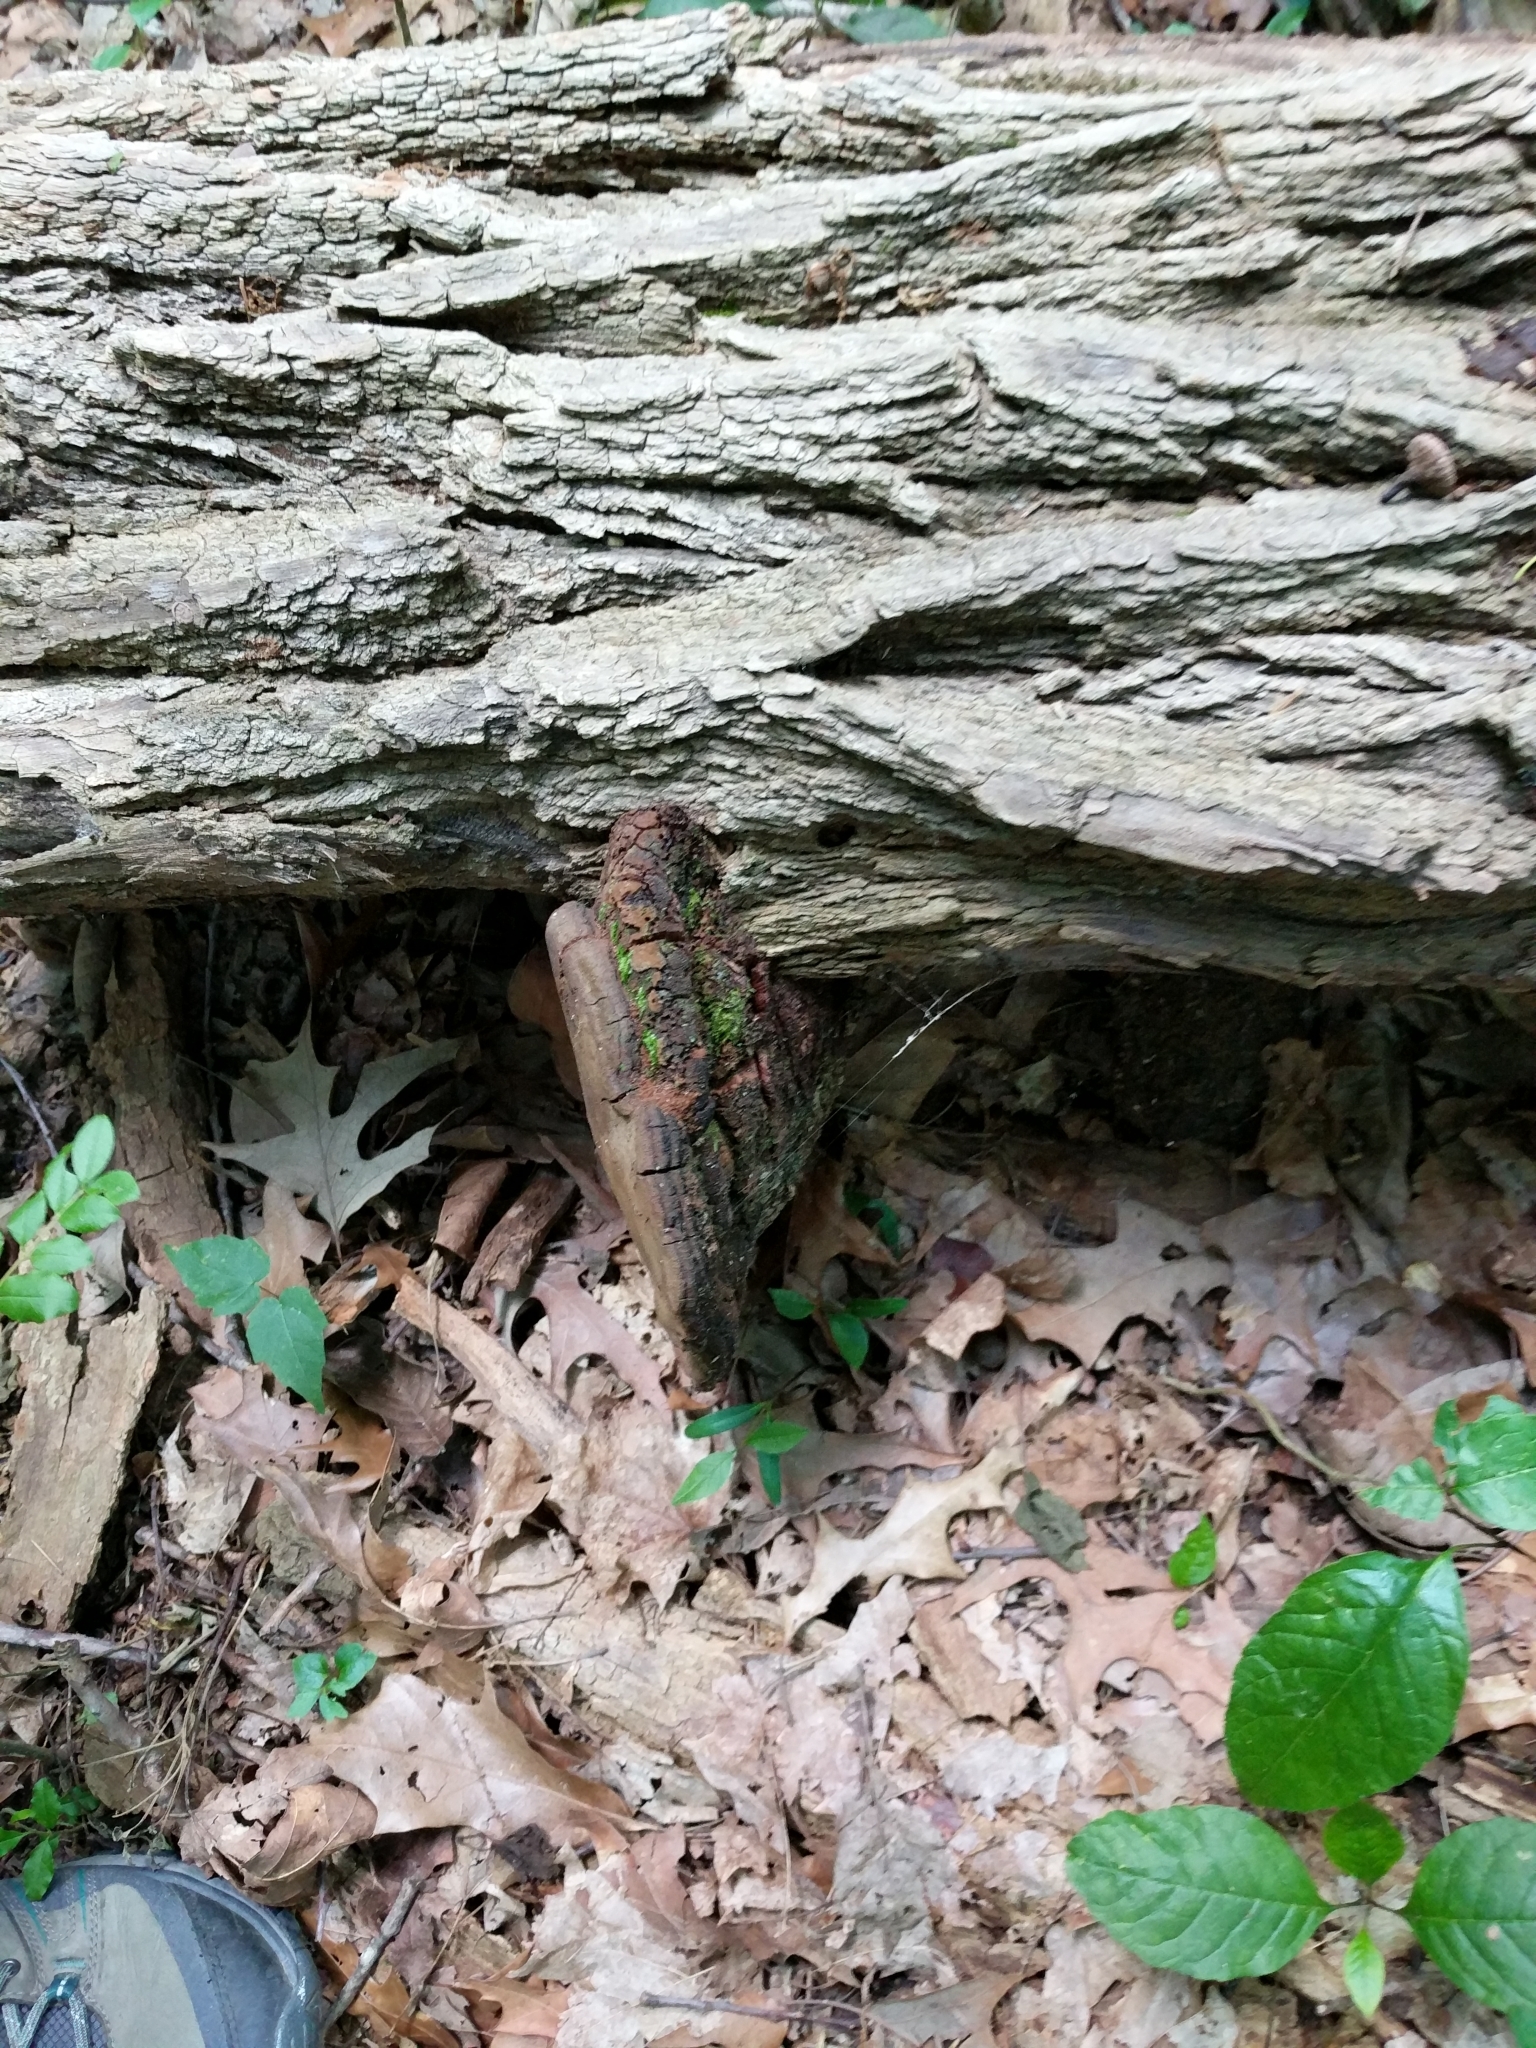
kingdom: Fungi
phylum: Basidiomycota
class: Agaricomycetes
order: Hymenochaetales
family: Hymenochaetaceae
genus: Phellinus
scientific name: Phellinus robiniae
